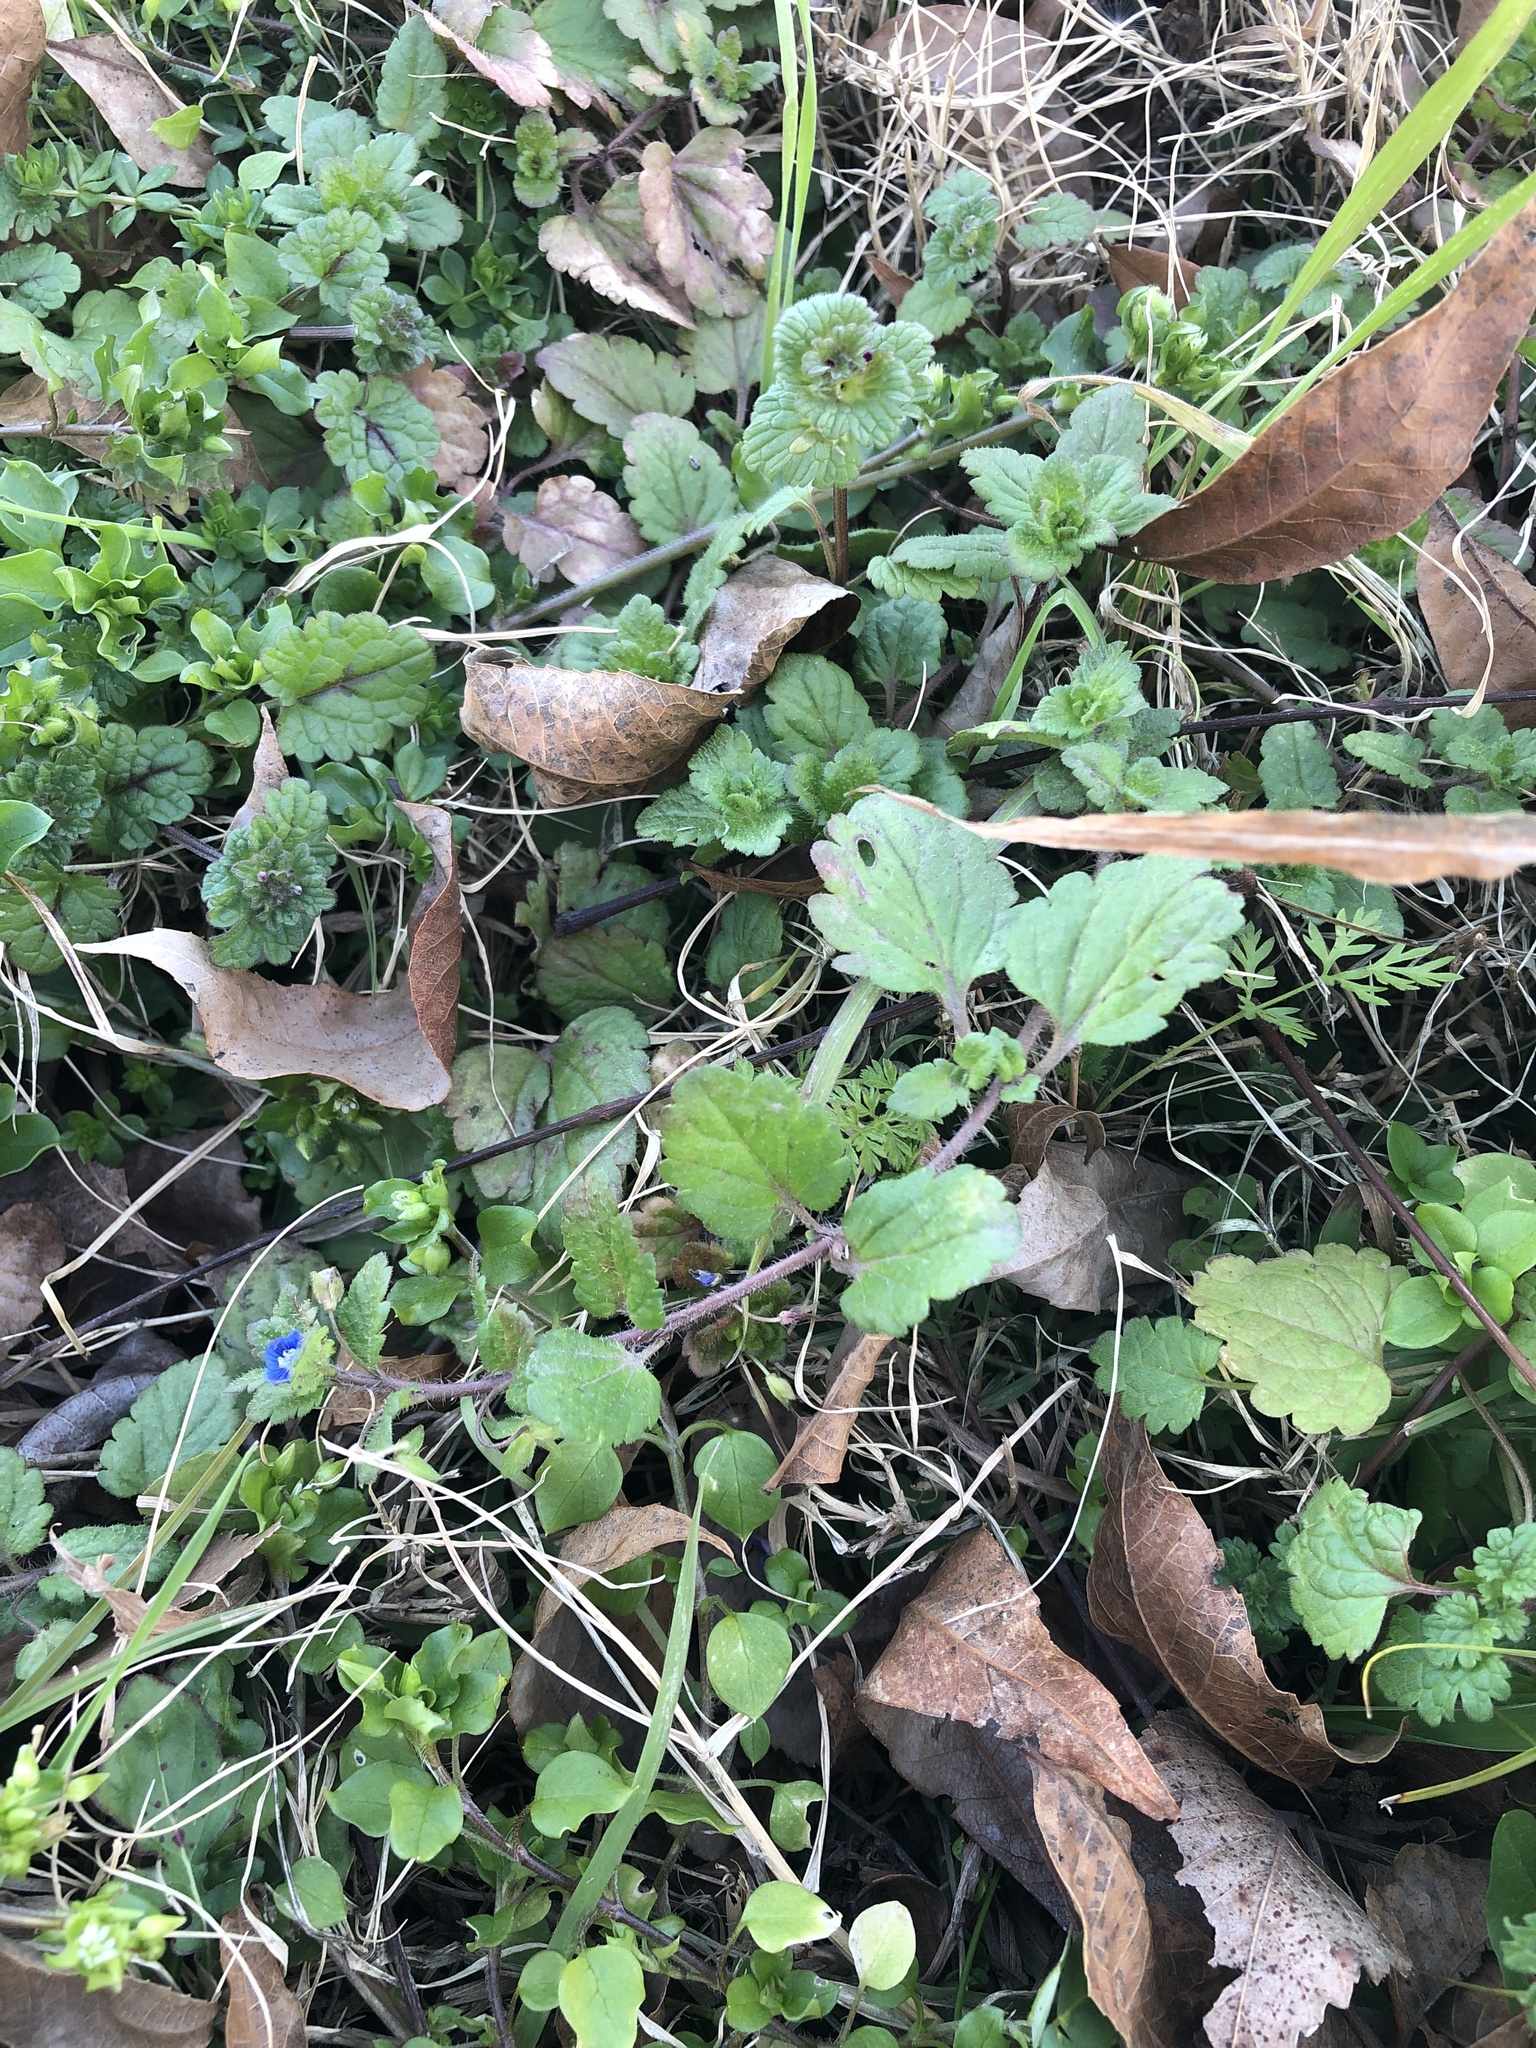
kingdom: Plantae
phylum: Tracheophyta
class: Magnoliopsida
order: Lamiales
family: Plantaginaceae
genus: Veronica
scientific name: Veronica persica
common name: Common field-speedwell
